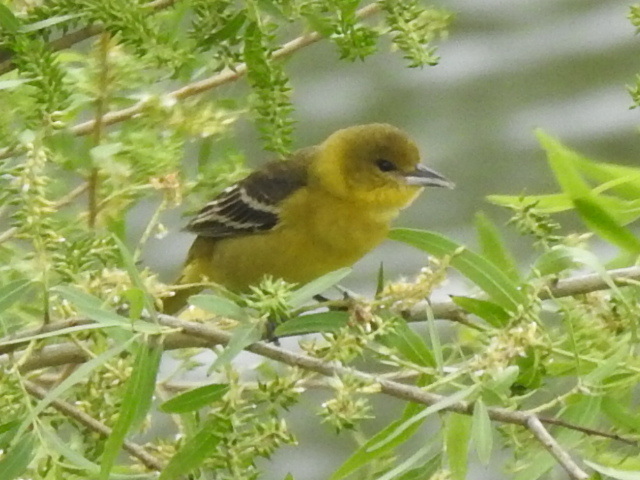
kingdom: Animalia
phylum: Chordata
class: Aves
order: Passeriformes
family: Icteridae
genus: Icterus
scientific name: Icterus spurius
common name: Orchard oriole
